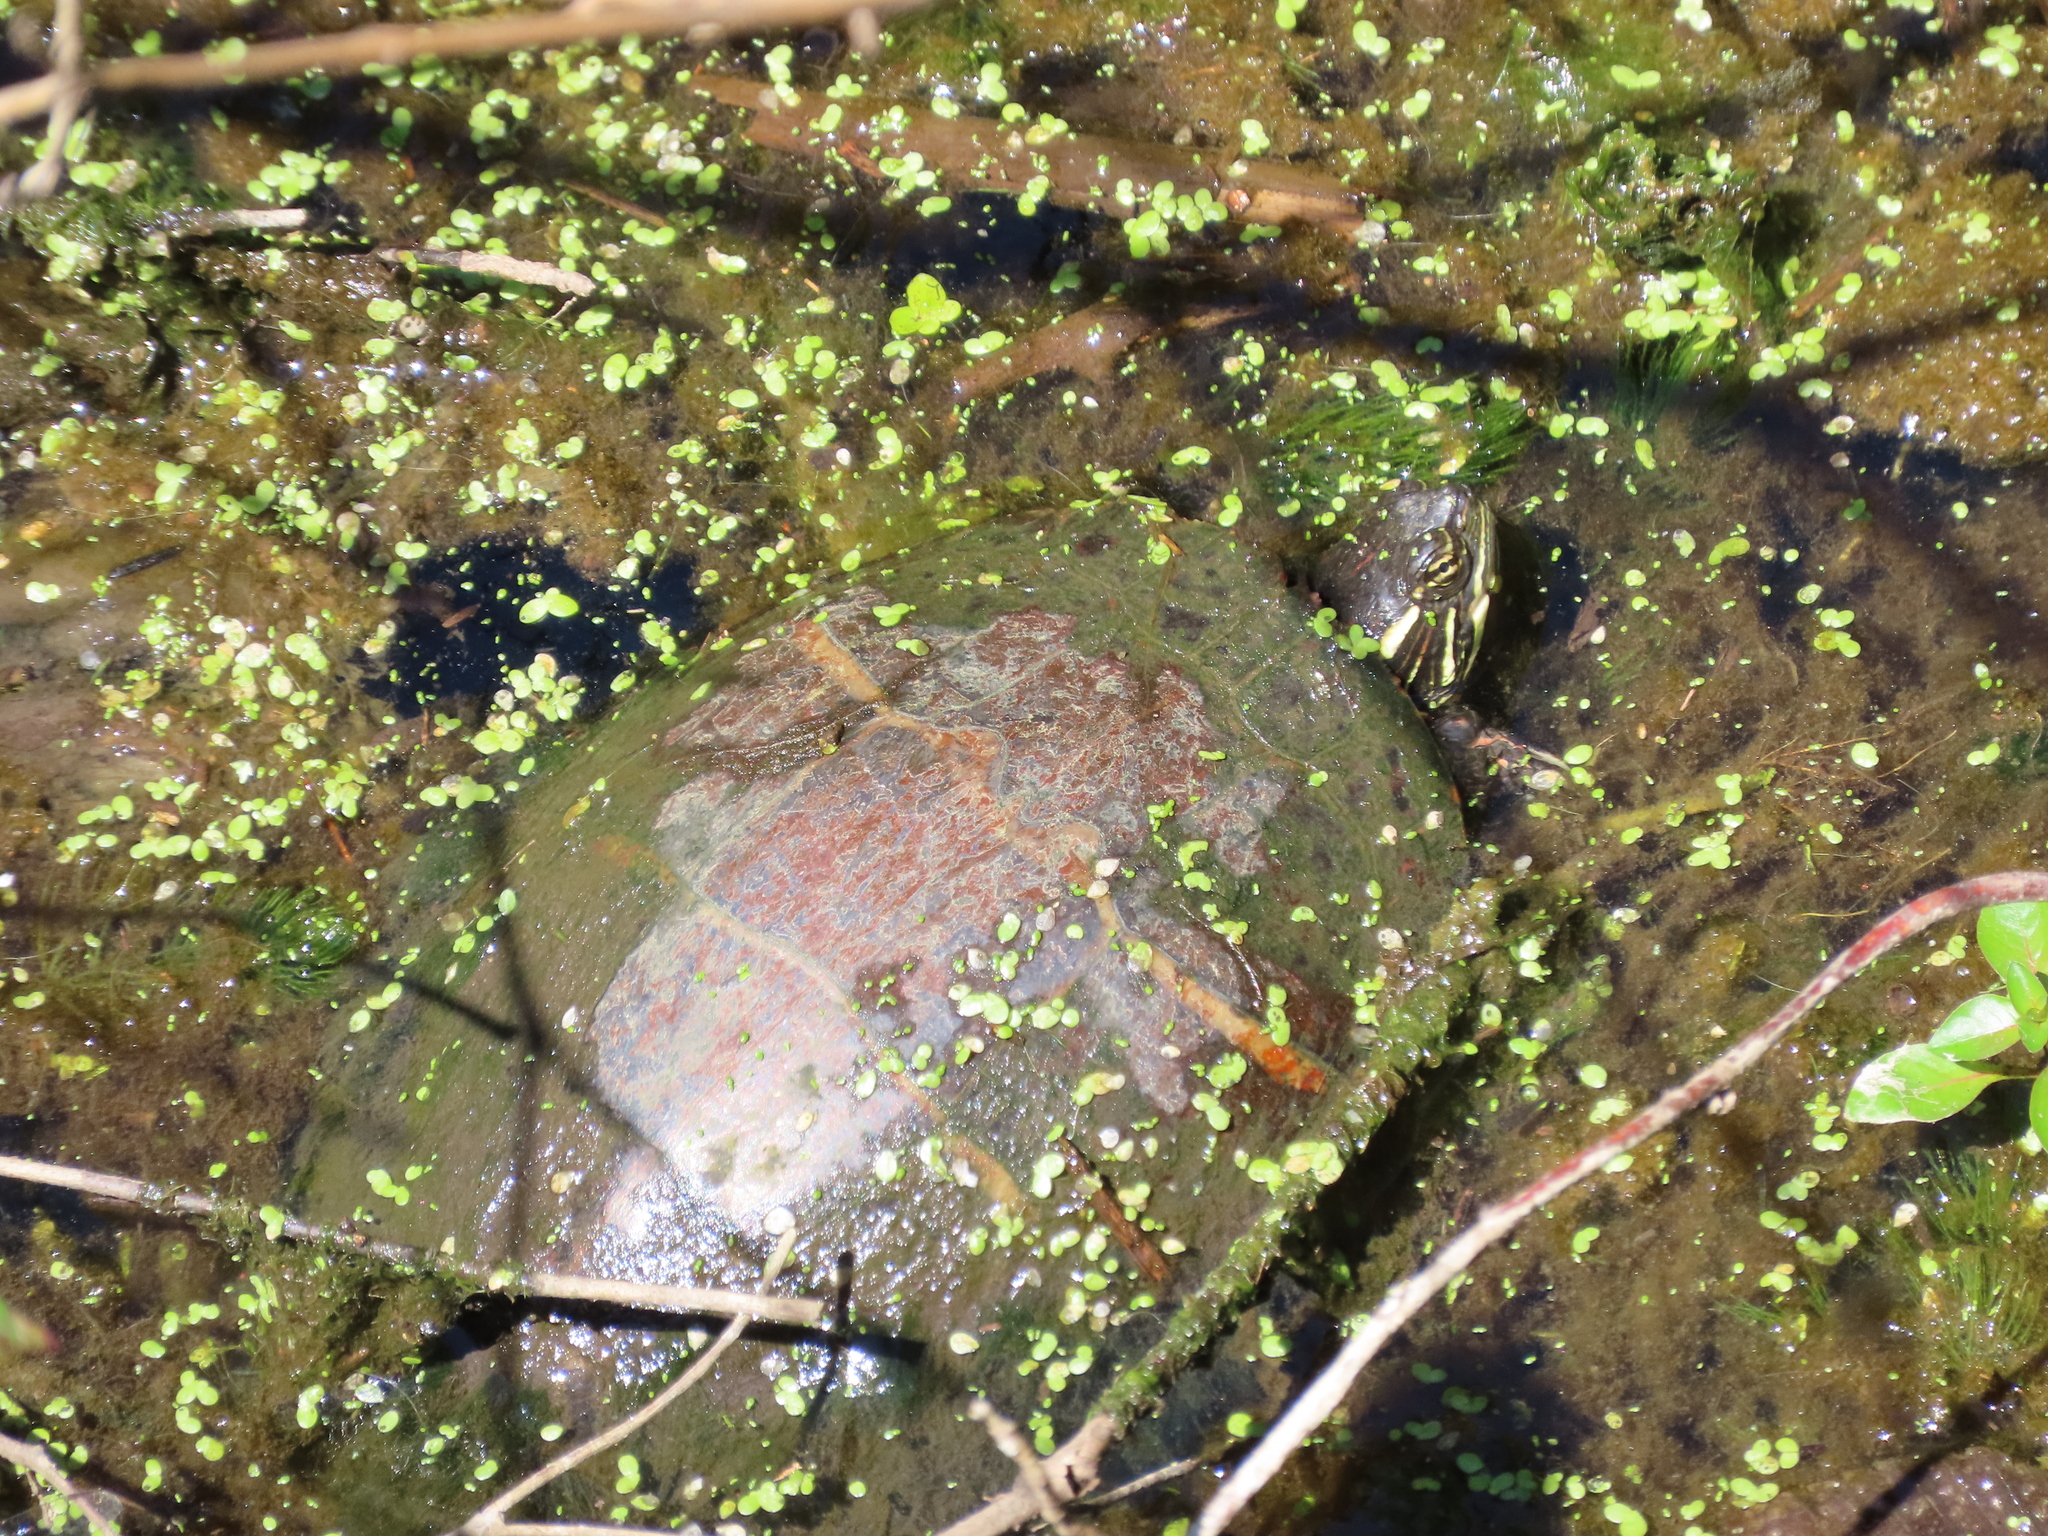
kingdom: Animalia
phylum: Chordata
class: Testudines
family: Emydidae
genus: Chrysemys
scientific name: Chrysemys picta
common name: Painted turtle
